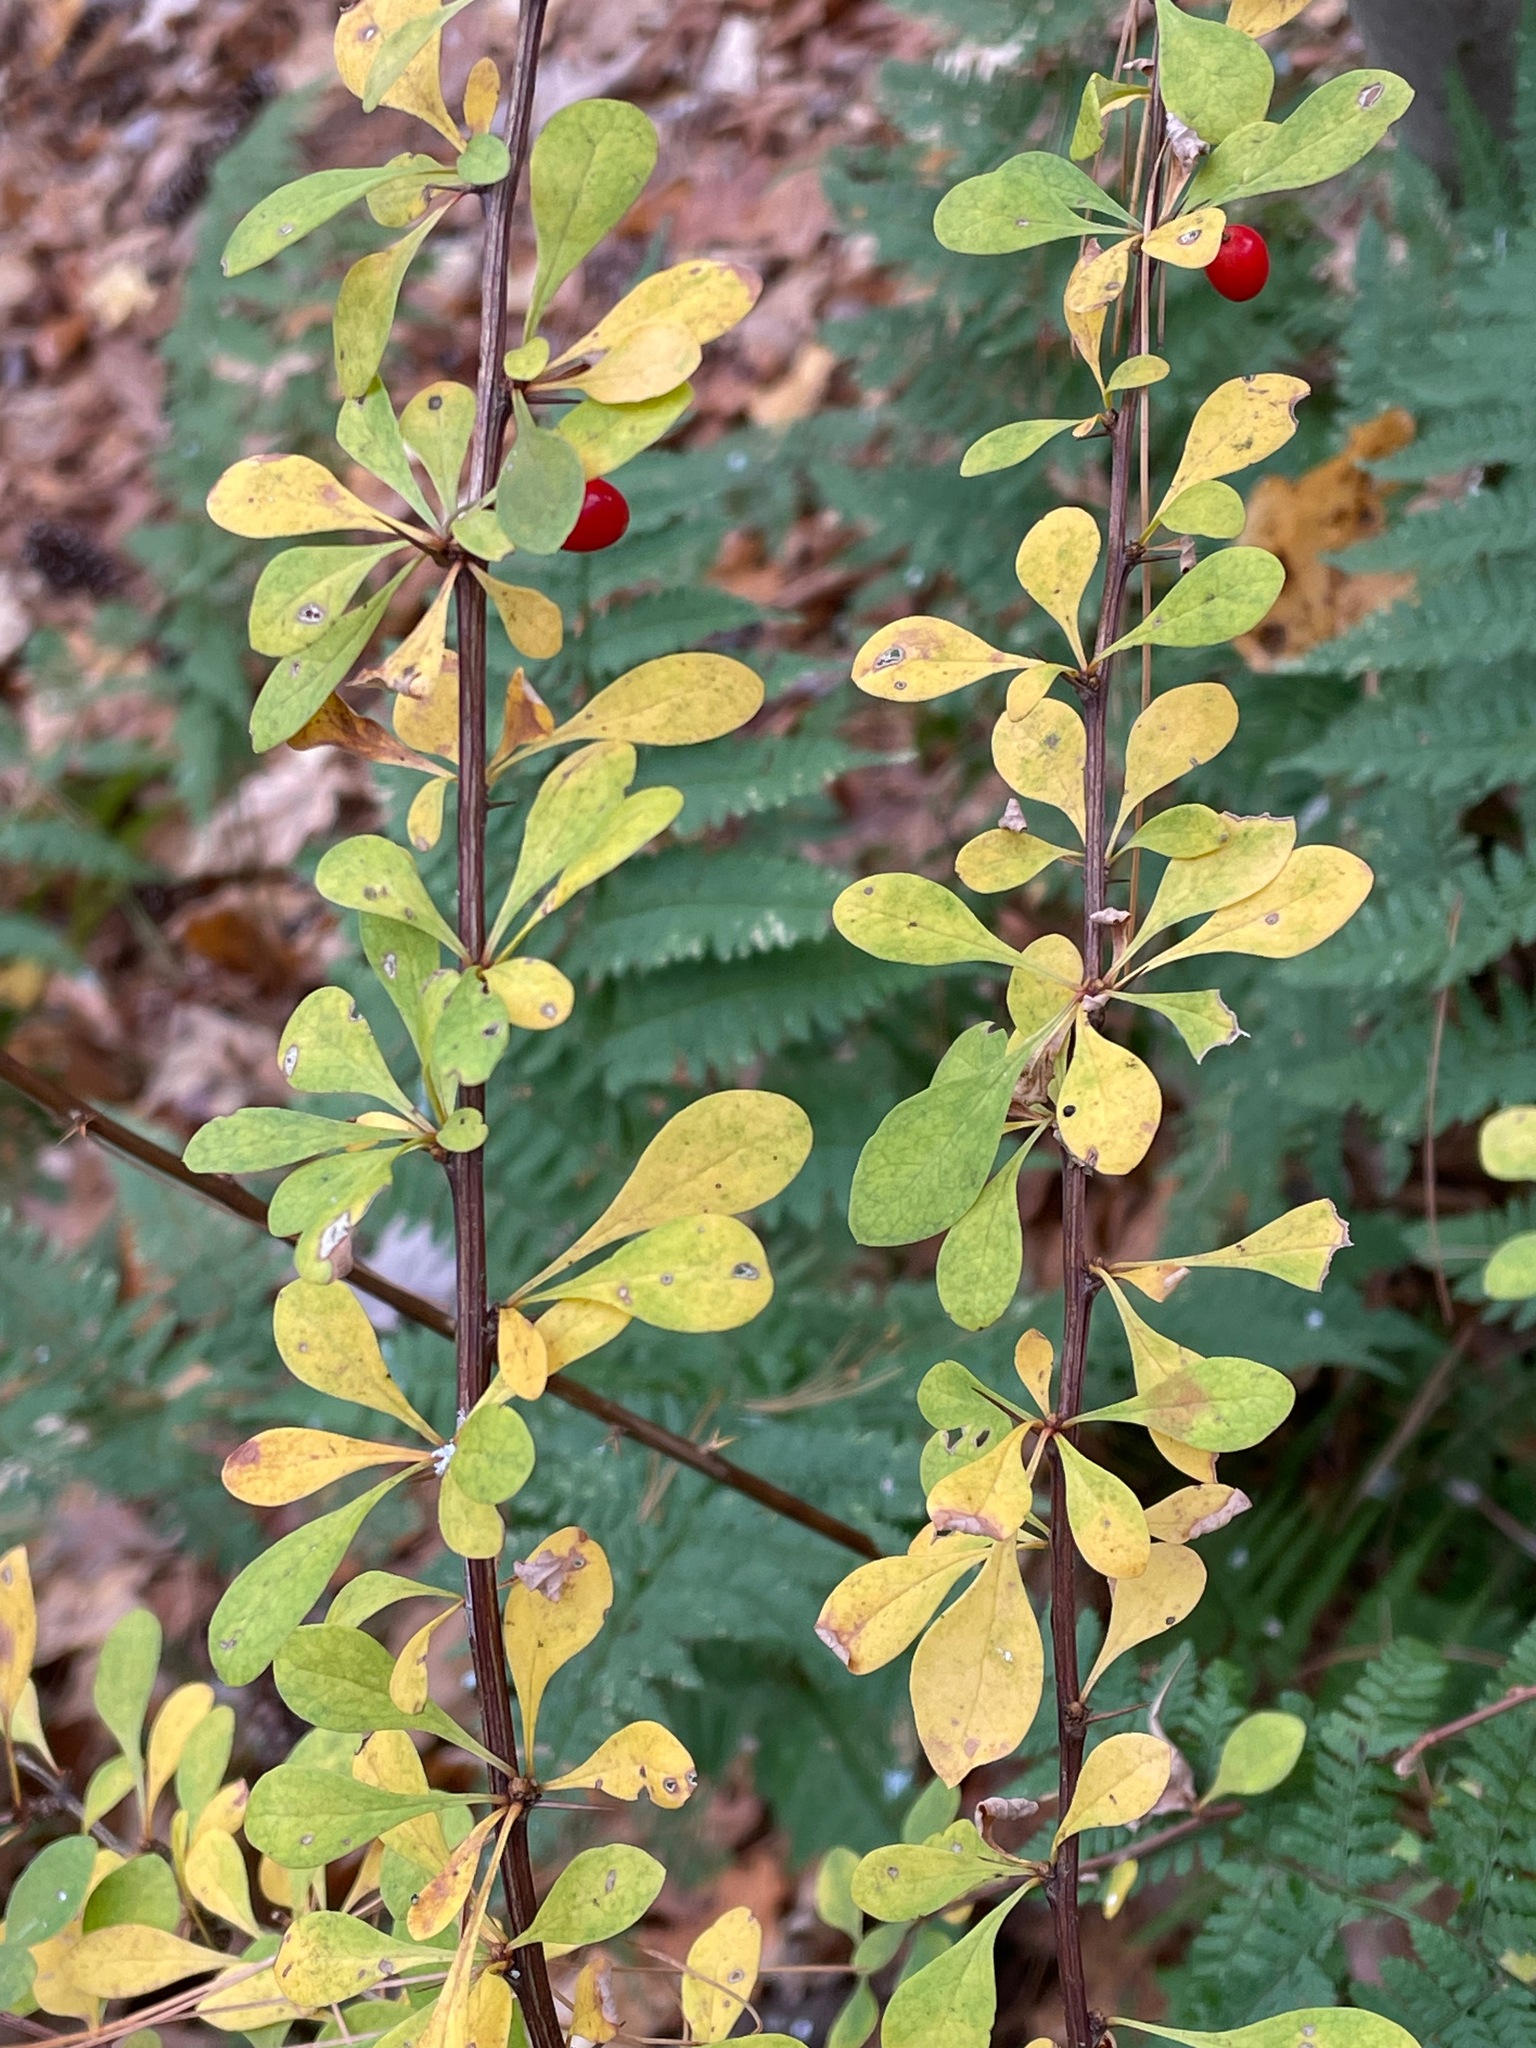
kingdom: Plantae
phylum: Tracheophyta
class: Magnoliopsida
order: Ranunculales
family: Berberidaceae
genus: Berberis
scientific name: Berberis thunbergii
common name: Japanese barberry
